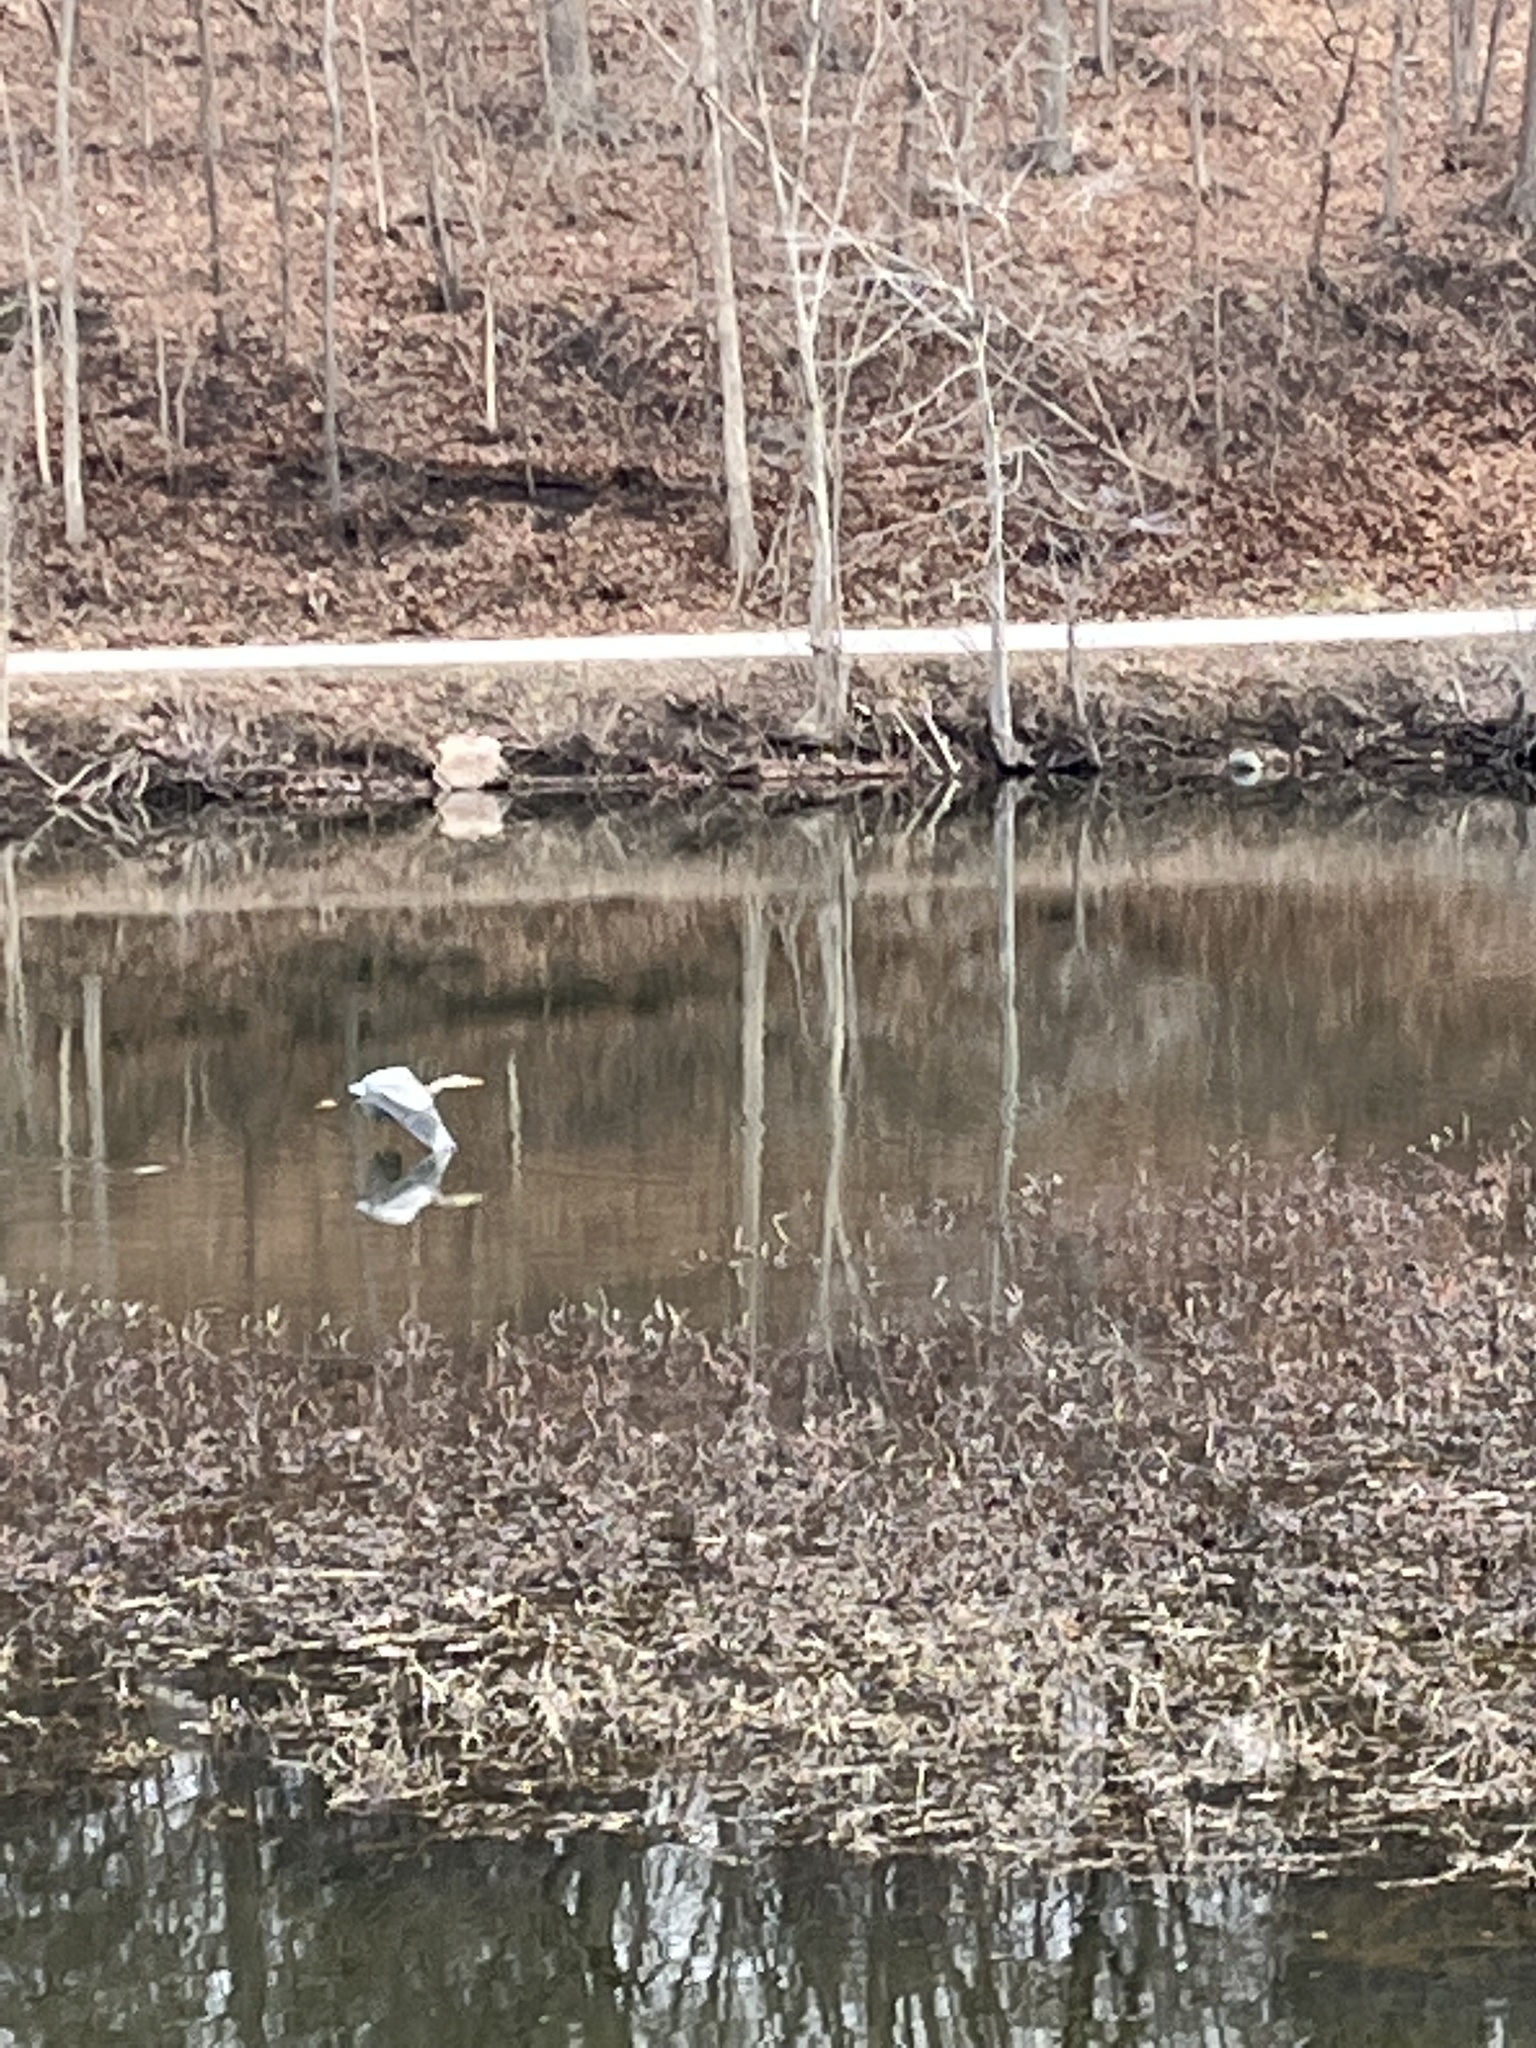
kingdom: Animalia
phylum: Chordata
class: Aves
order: Pelecaniformes
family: Ardeidae
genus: Ardea
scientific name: Ardea herodias
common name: Great blue heron
